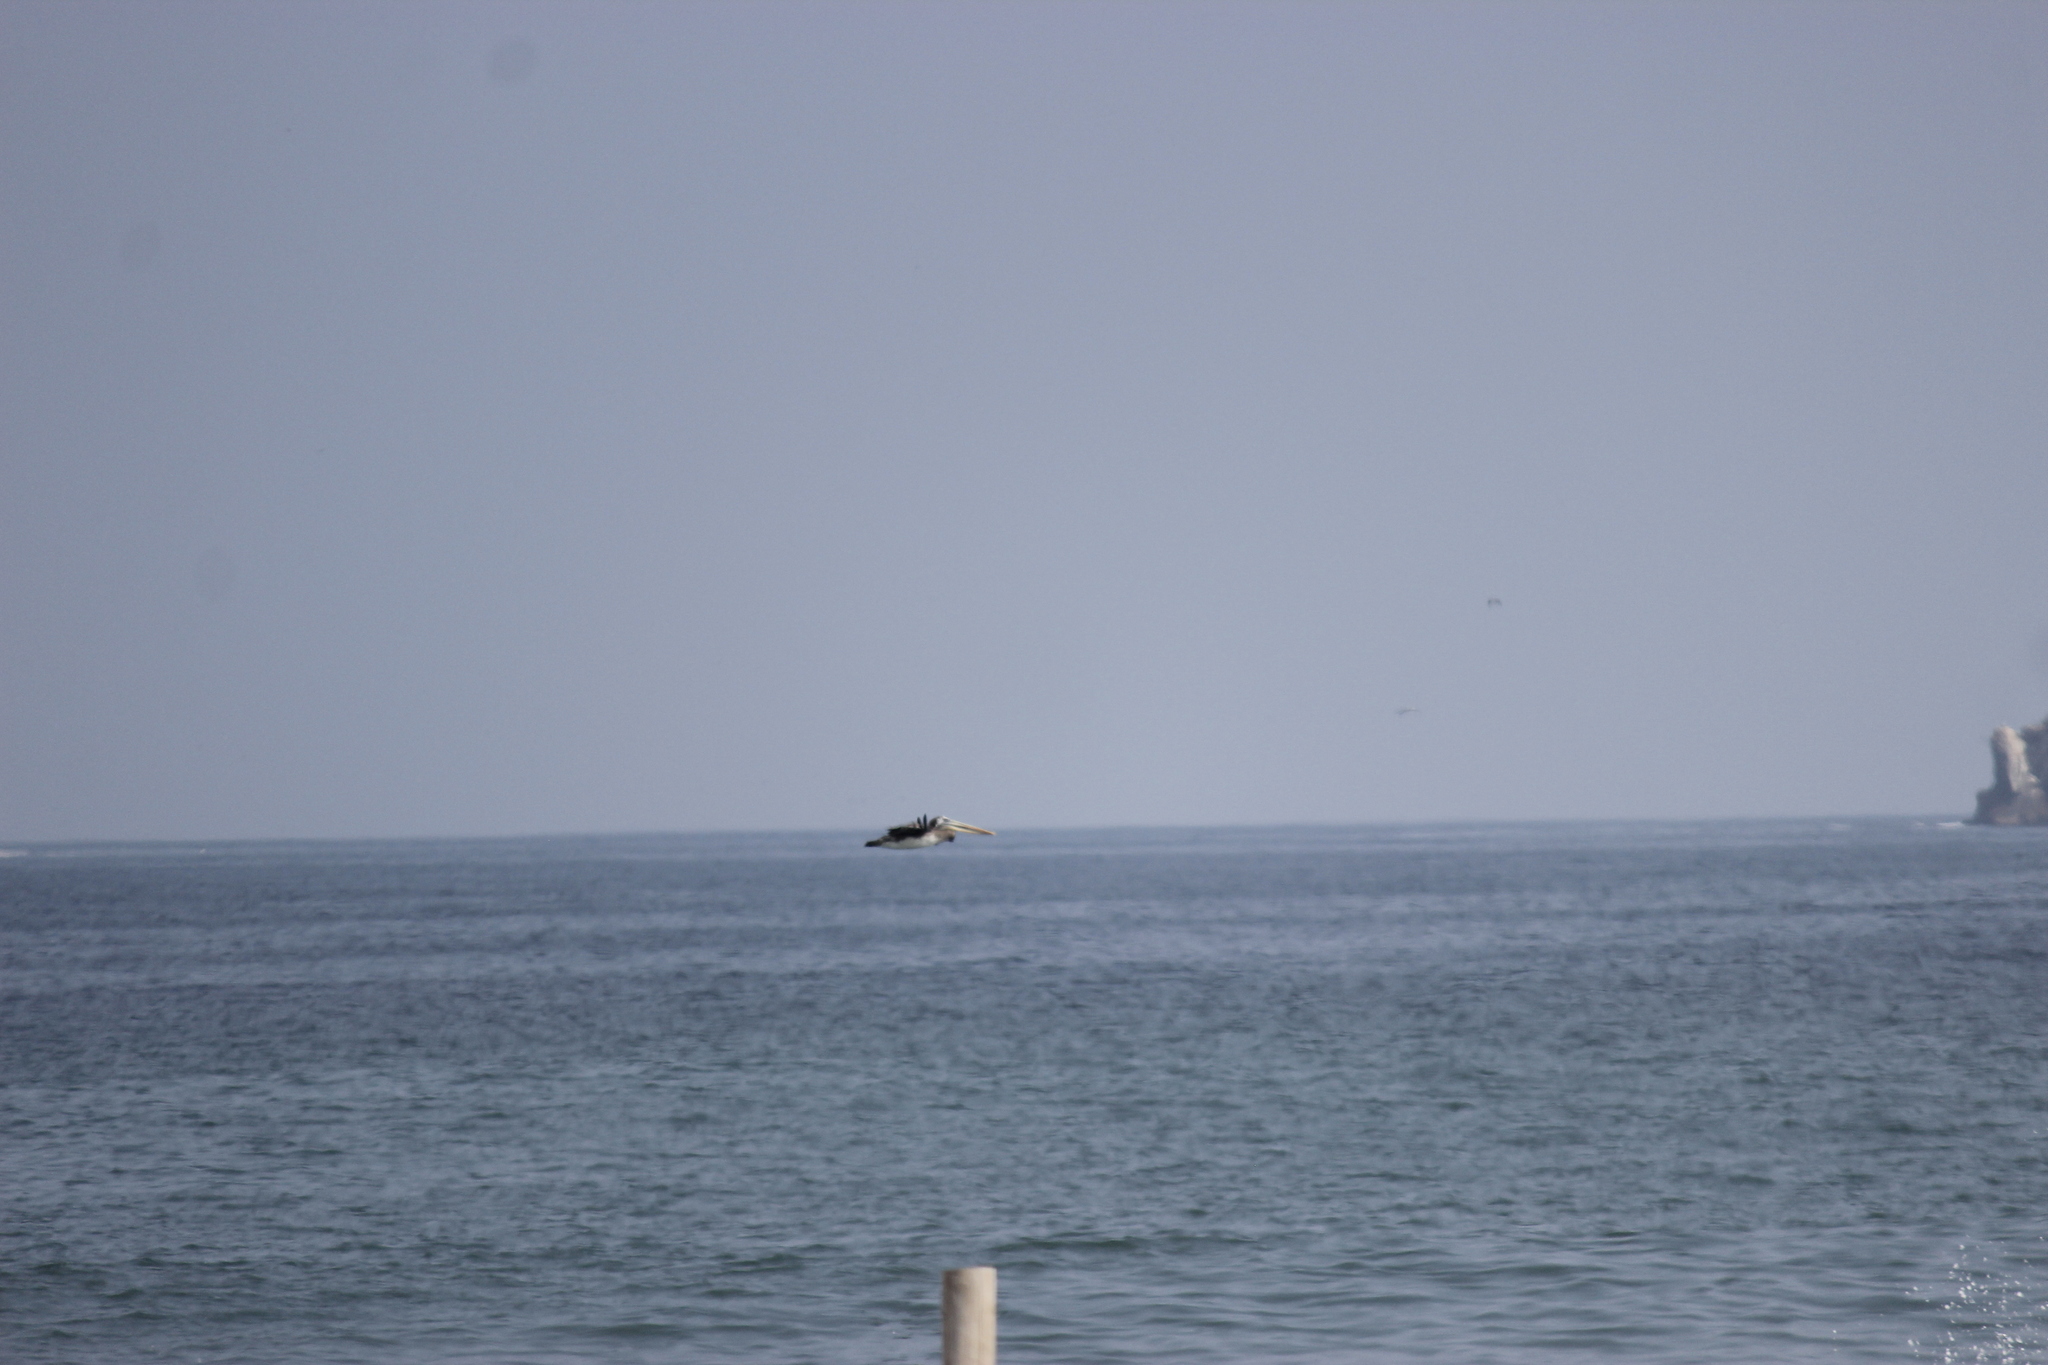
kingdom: Animalia
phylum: Chordata
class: Aves
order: Pelecaniformes
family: Pelecanidae
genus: Pelecanus
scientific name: Pelecanus thagus
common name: Peruvian pelican
